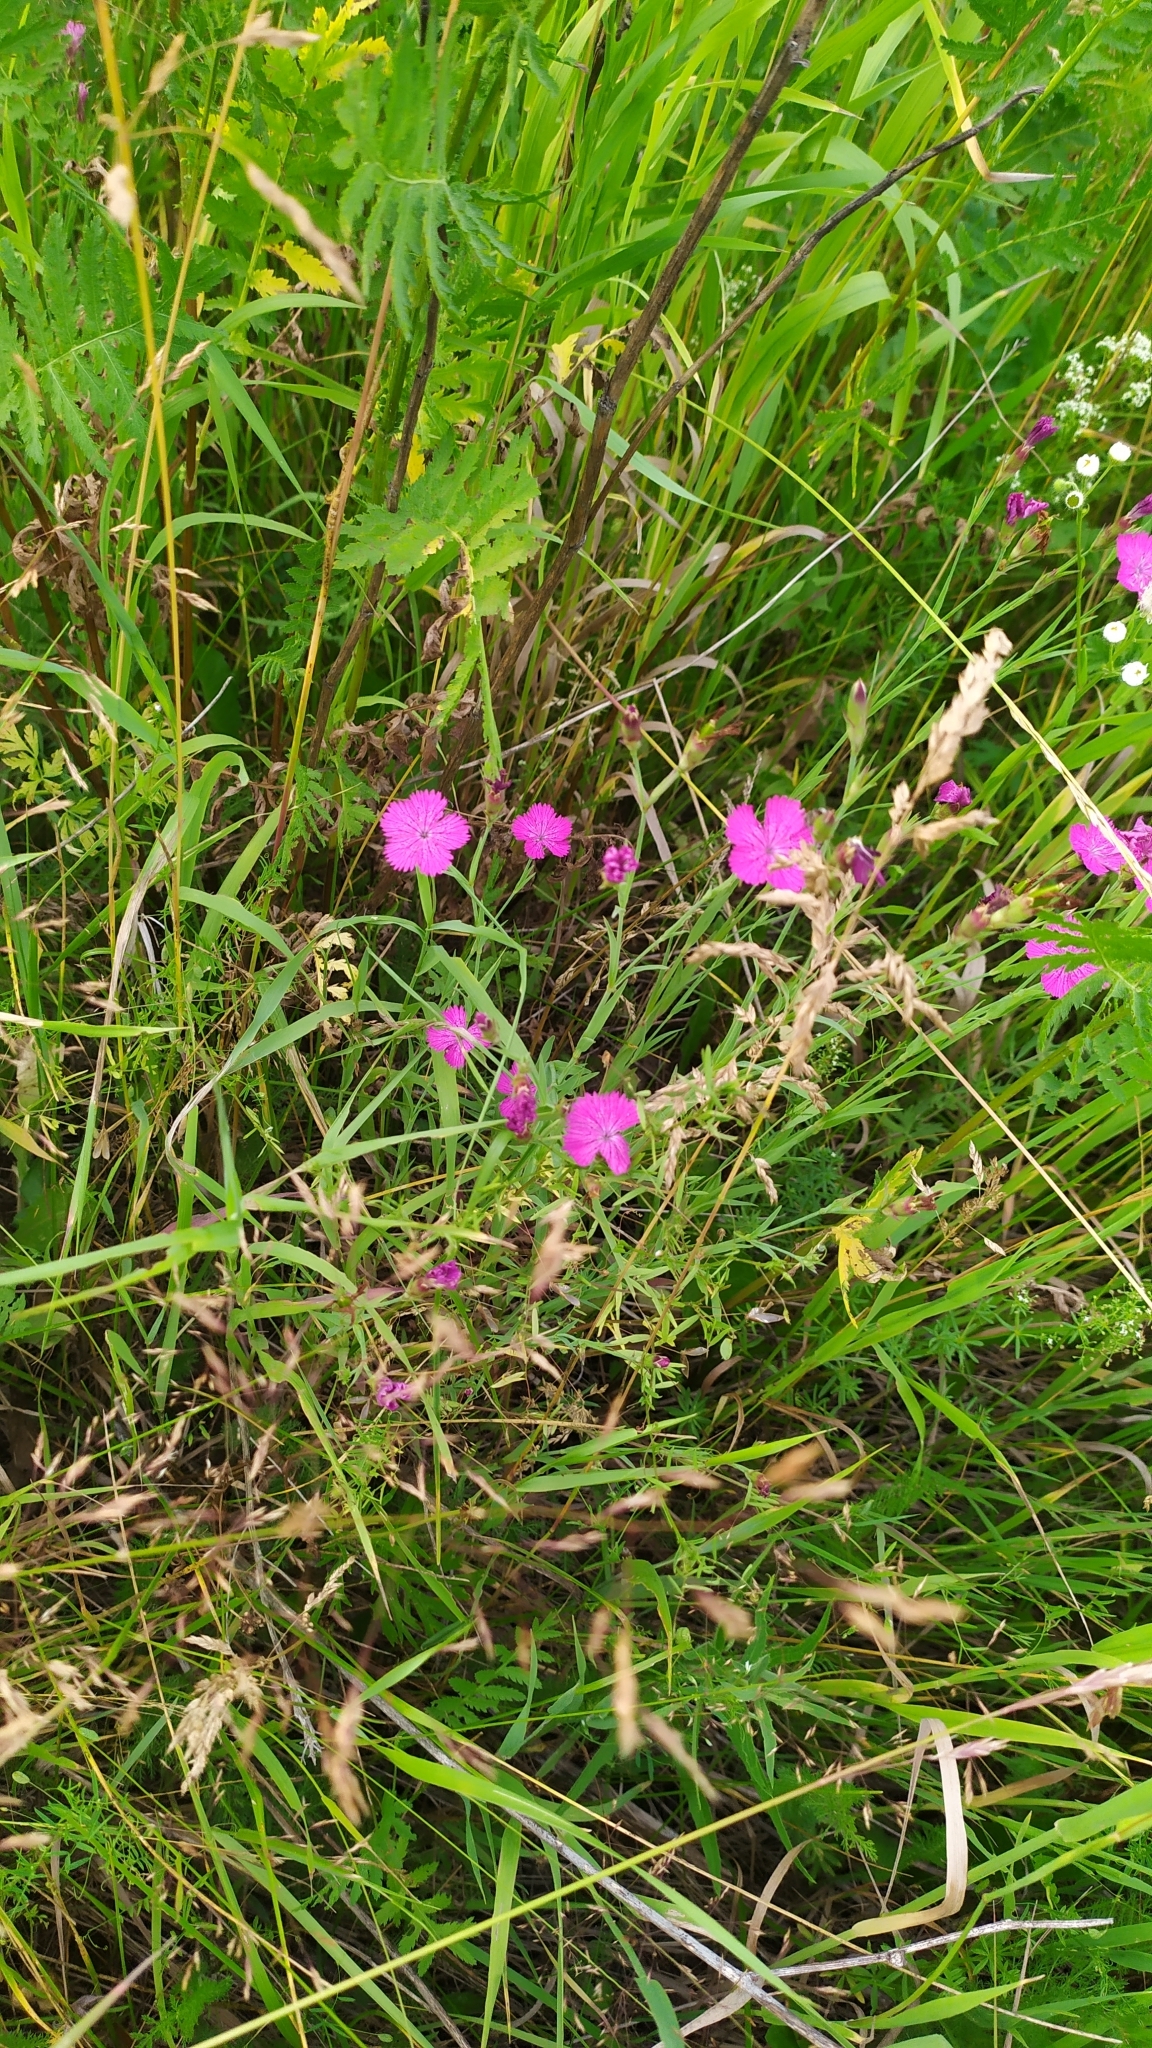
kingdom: Plantae
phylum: Tracheophyta
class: Magnoliopsida
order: Caryophyllales
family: Caryophyllaceae
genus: Dianthus
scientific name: Dianthus deltoides
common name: Maiden pink
